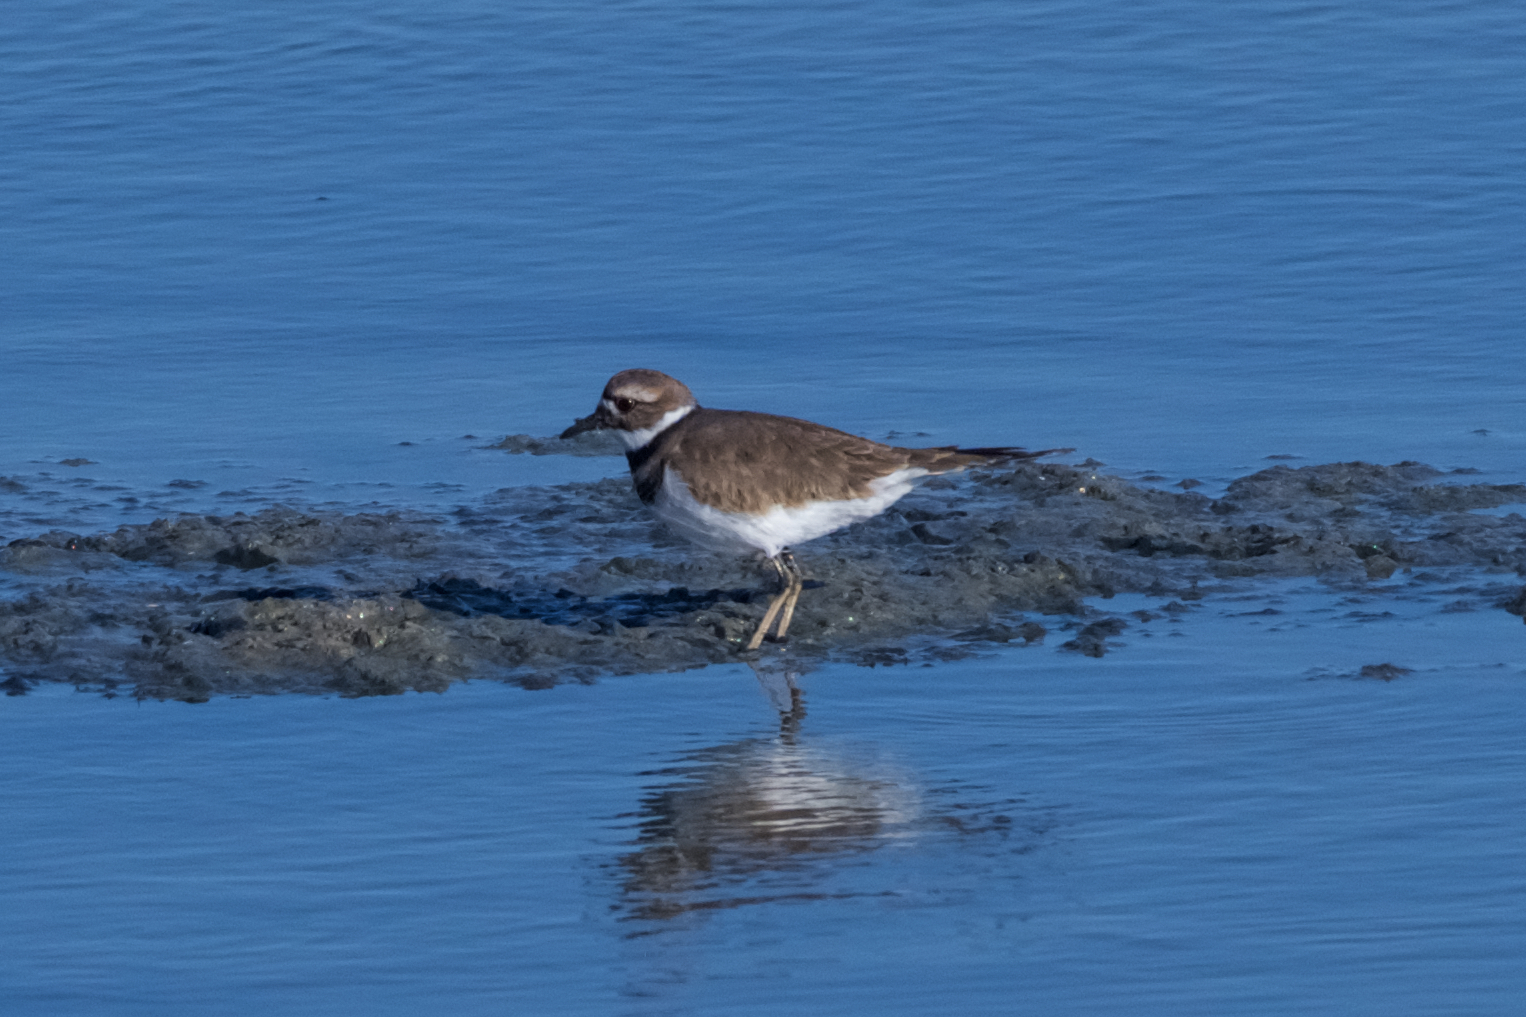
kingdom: Animalia
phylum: Chordata
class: Aves
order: Charadriiformes
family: Charadriidae
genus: Charadrius
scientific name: Charadrius vociferus
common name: Killdeer
